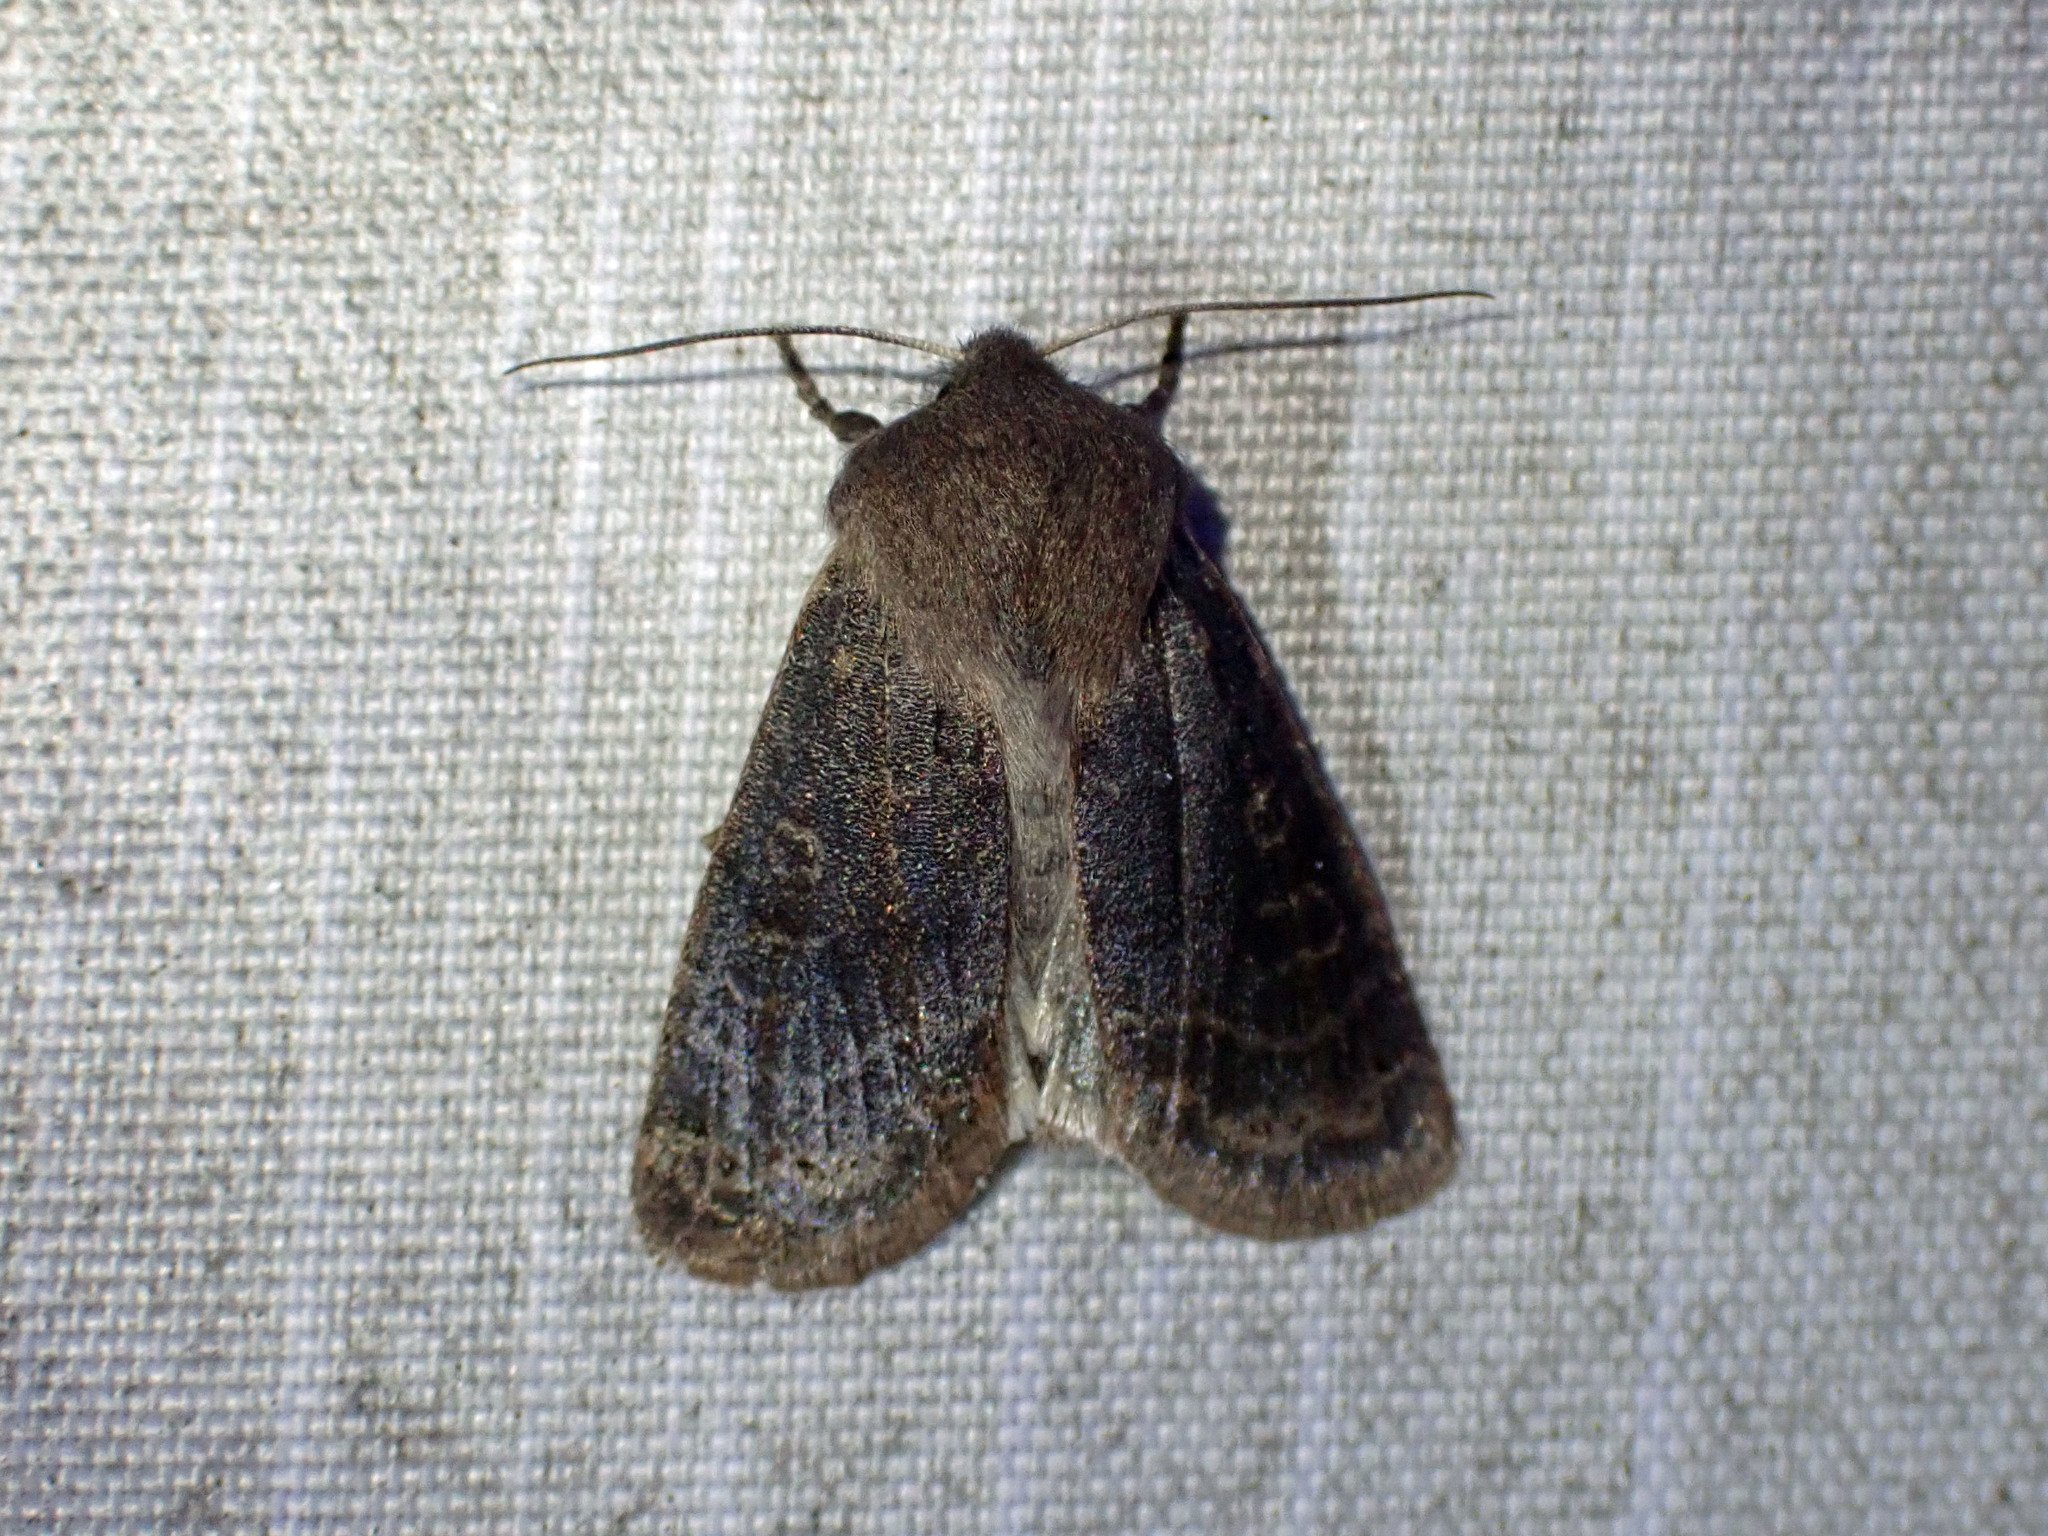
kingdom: Animalia
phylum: Arthropoda
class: Insecta
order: Lepidoptera
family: Noctuidae
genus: Homoglaea
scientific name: Homoglaea hircina
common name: Goat sallow
